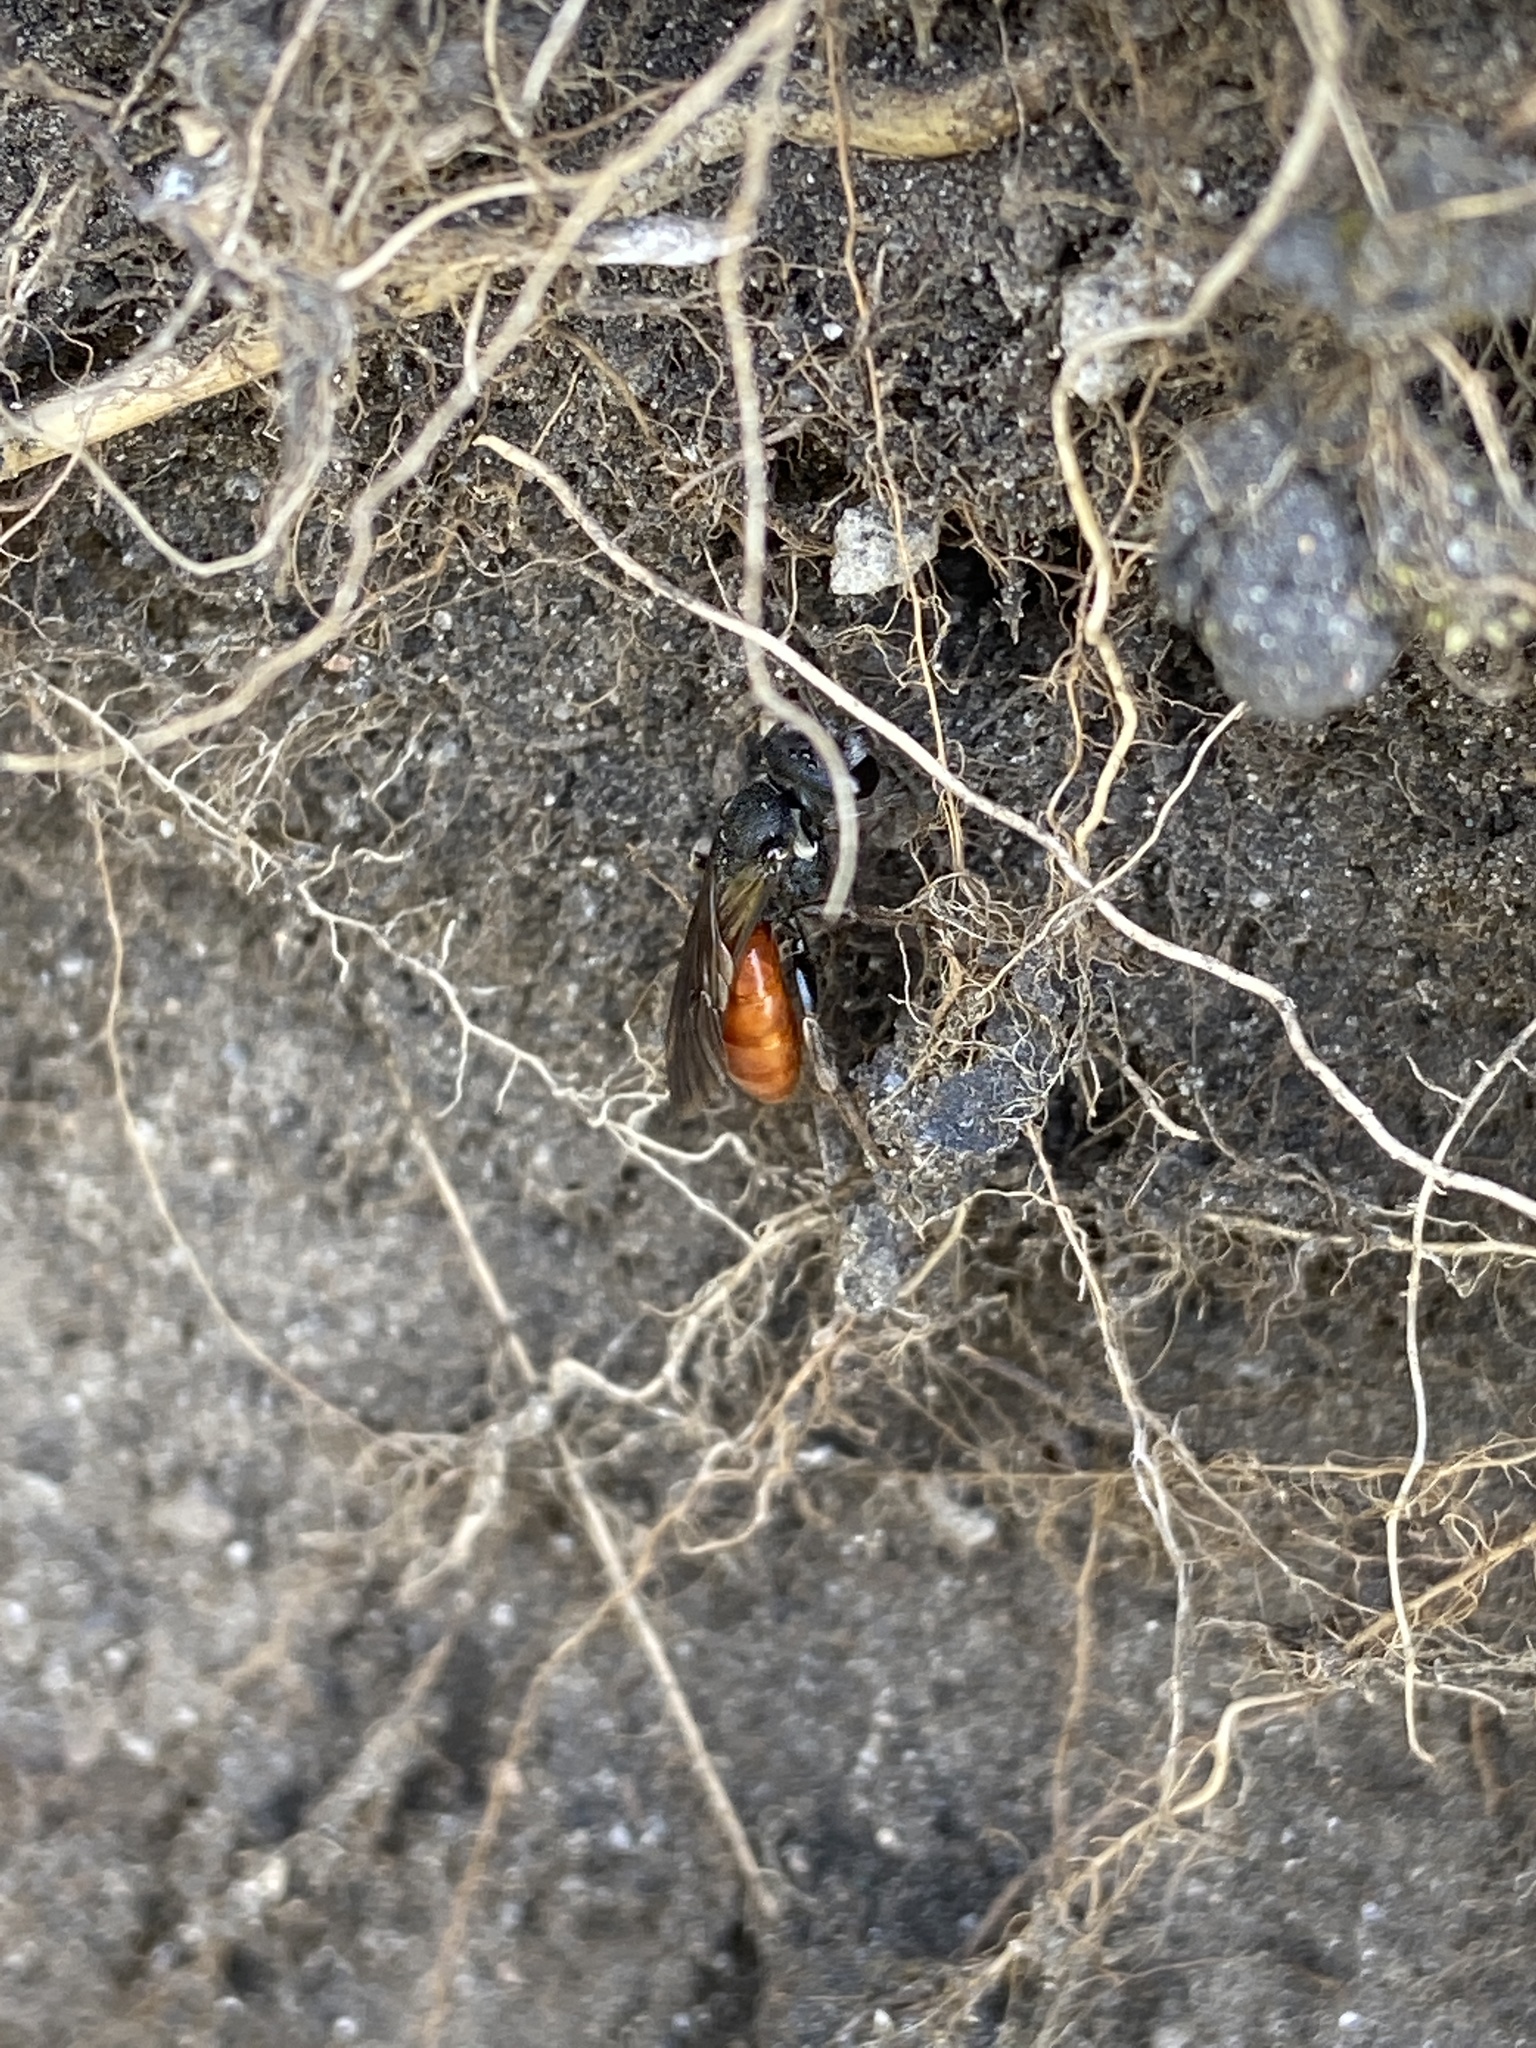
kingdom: Animalia
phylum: Arthropoda
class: Insecta
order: Hymenoptera
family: Halictidae
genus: Sphecodes
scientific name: Sphecodes albilabris
